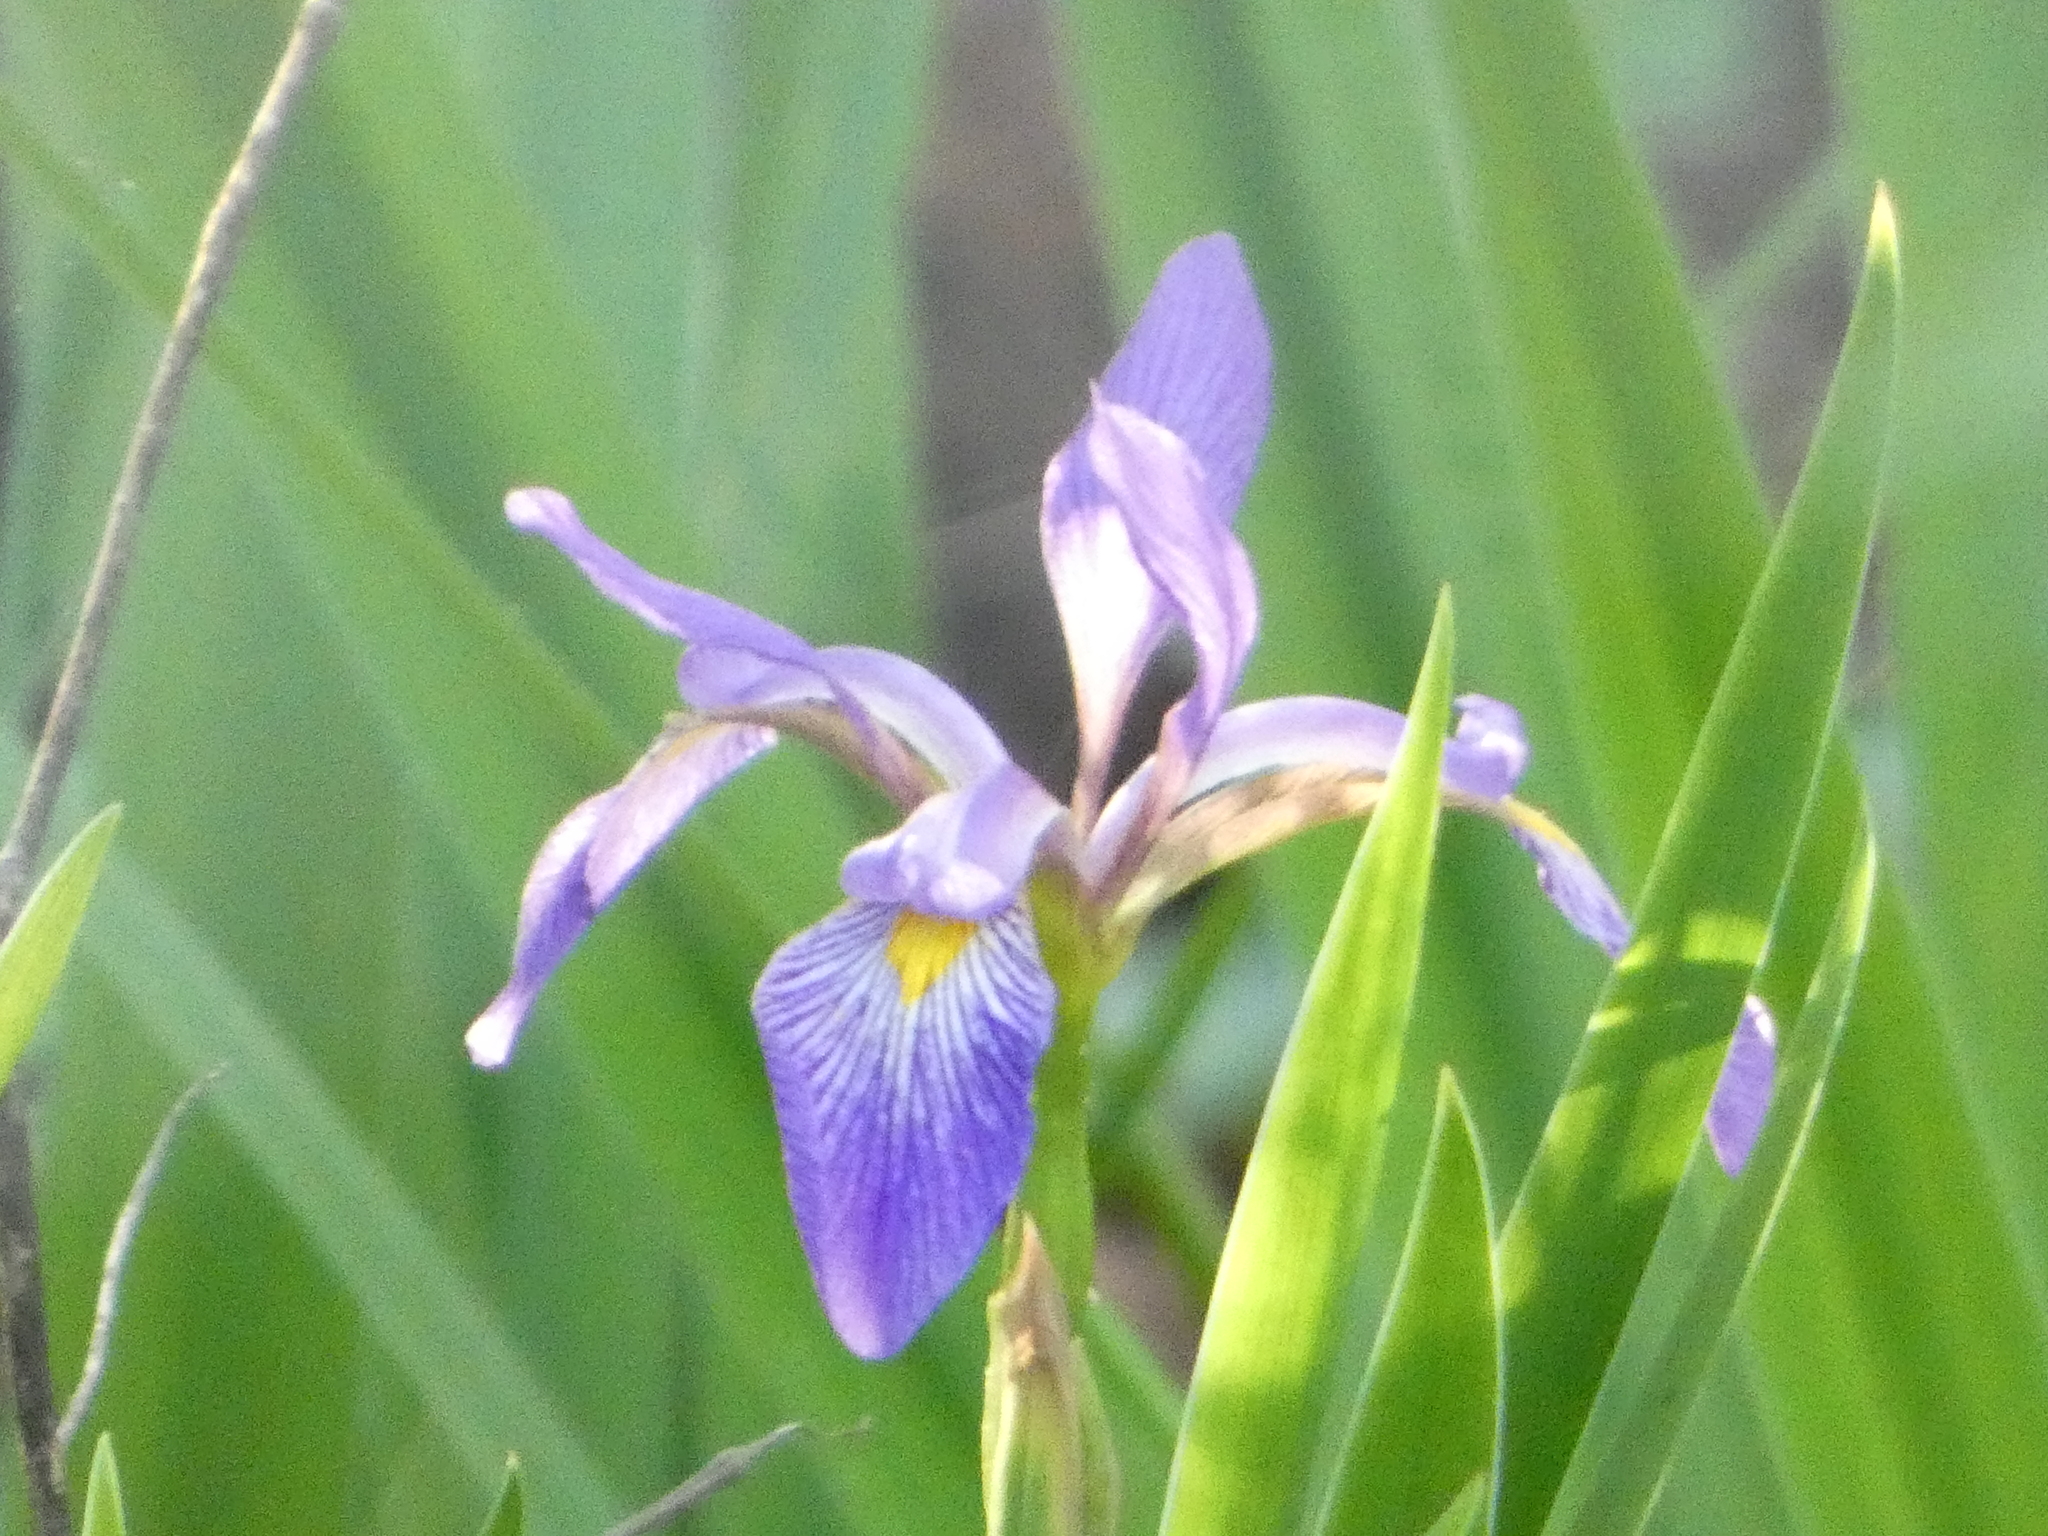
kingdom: Plantae
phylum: Tracheophyta
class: Liliopsida
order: Asparagales
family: Iridaceae
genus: Iris
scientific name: Iris virginica
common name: Southern blue flag
